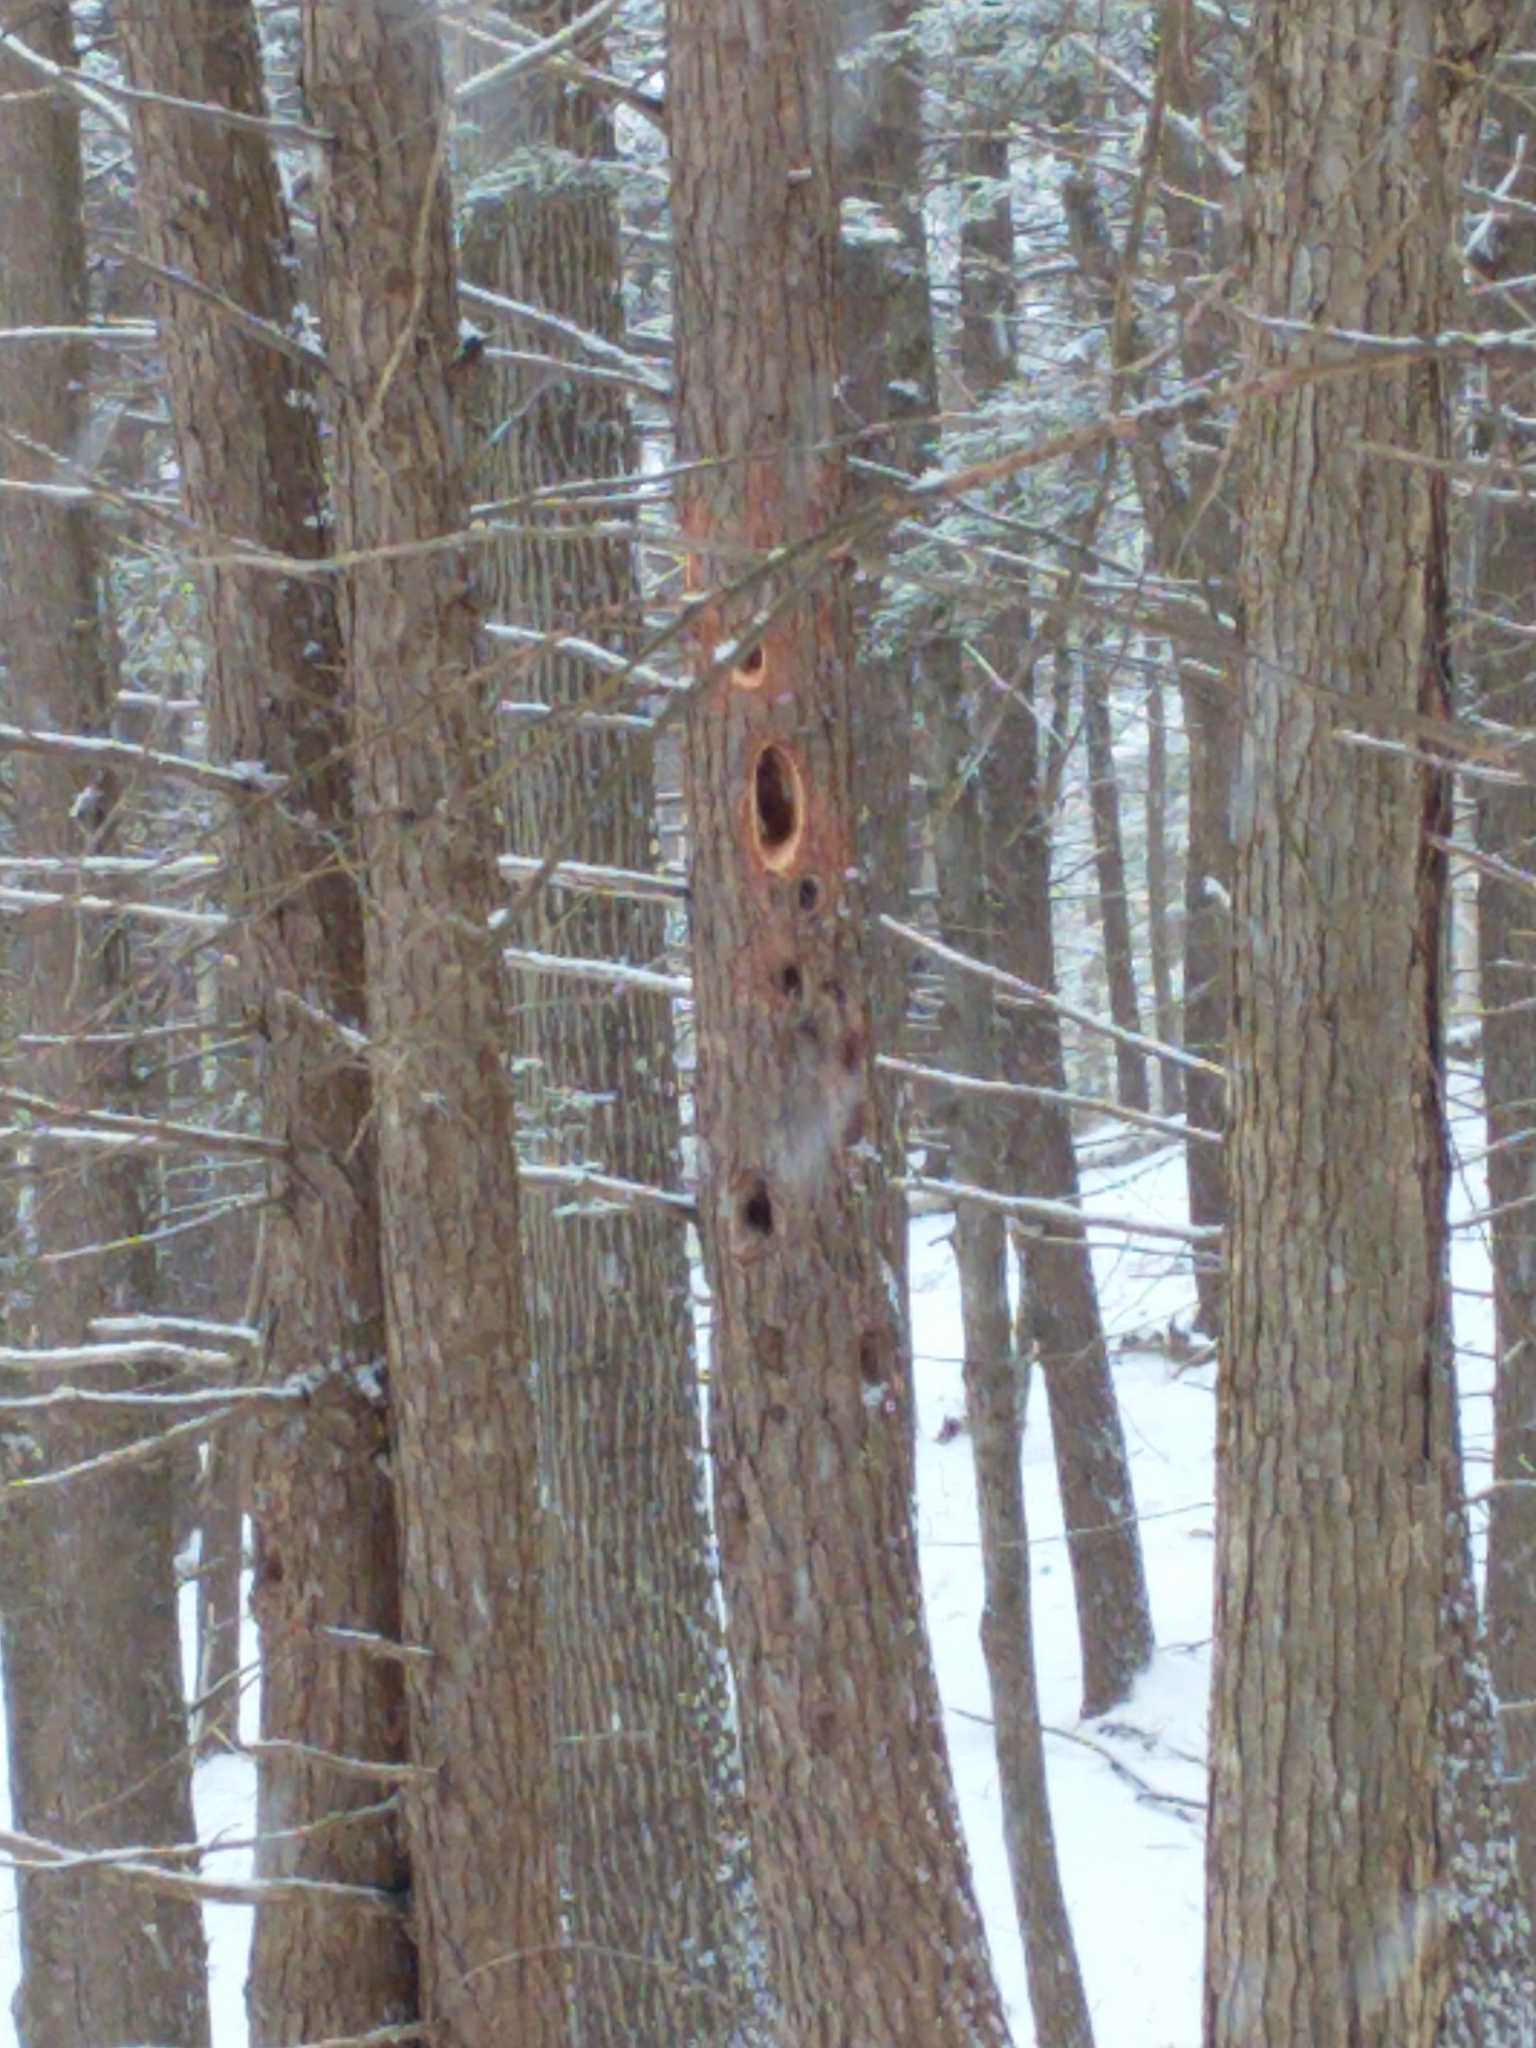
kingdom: Animalia
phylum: Chordata
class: Aves
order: Piciformes
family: Picidae
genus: Dryocopus
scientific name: Dryocopus pileatus
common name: Pileated woodpecker
